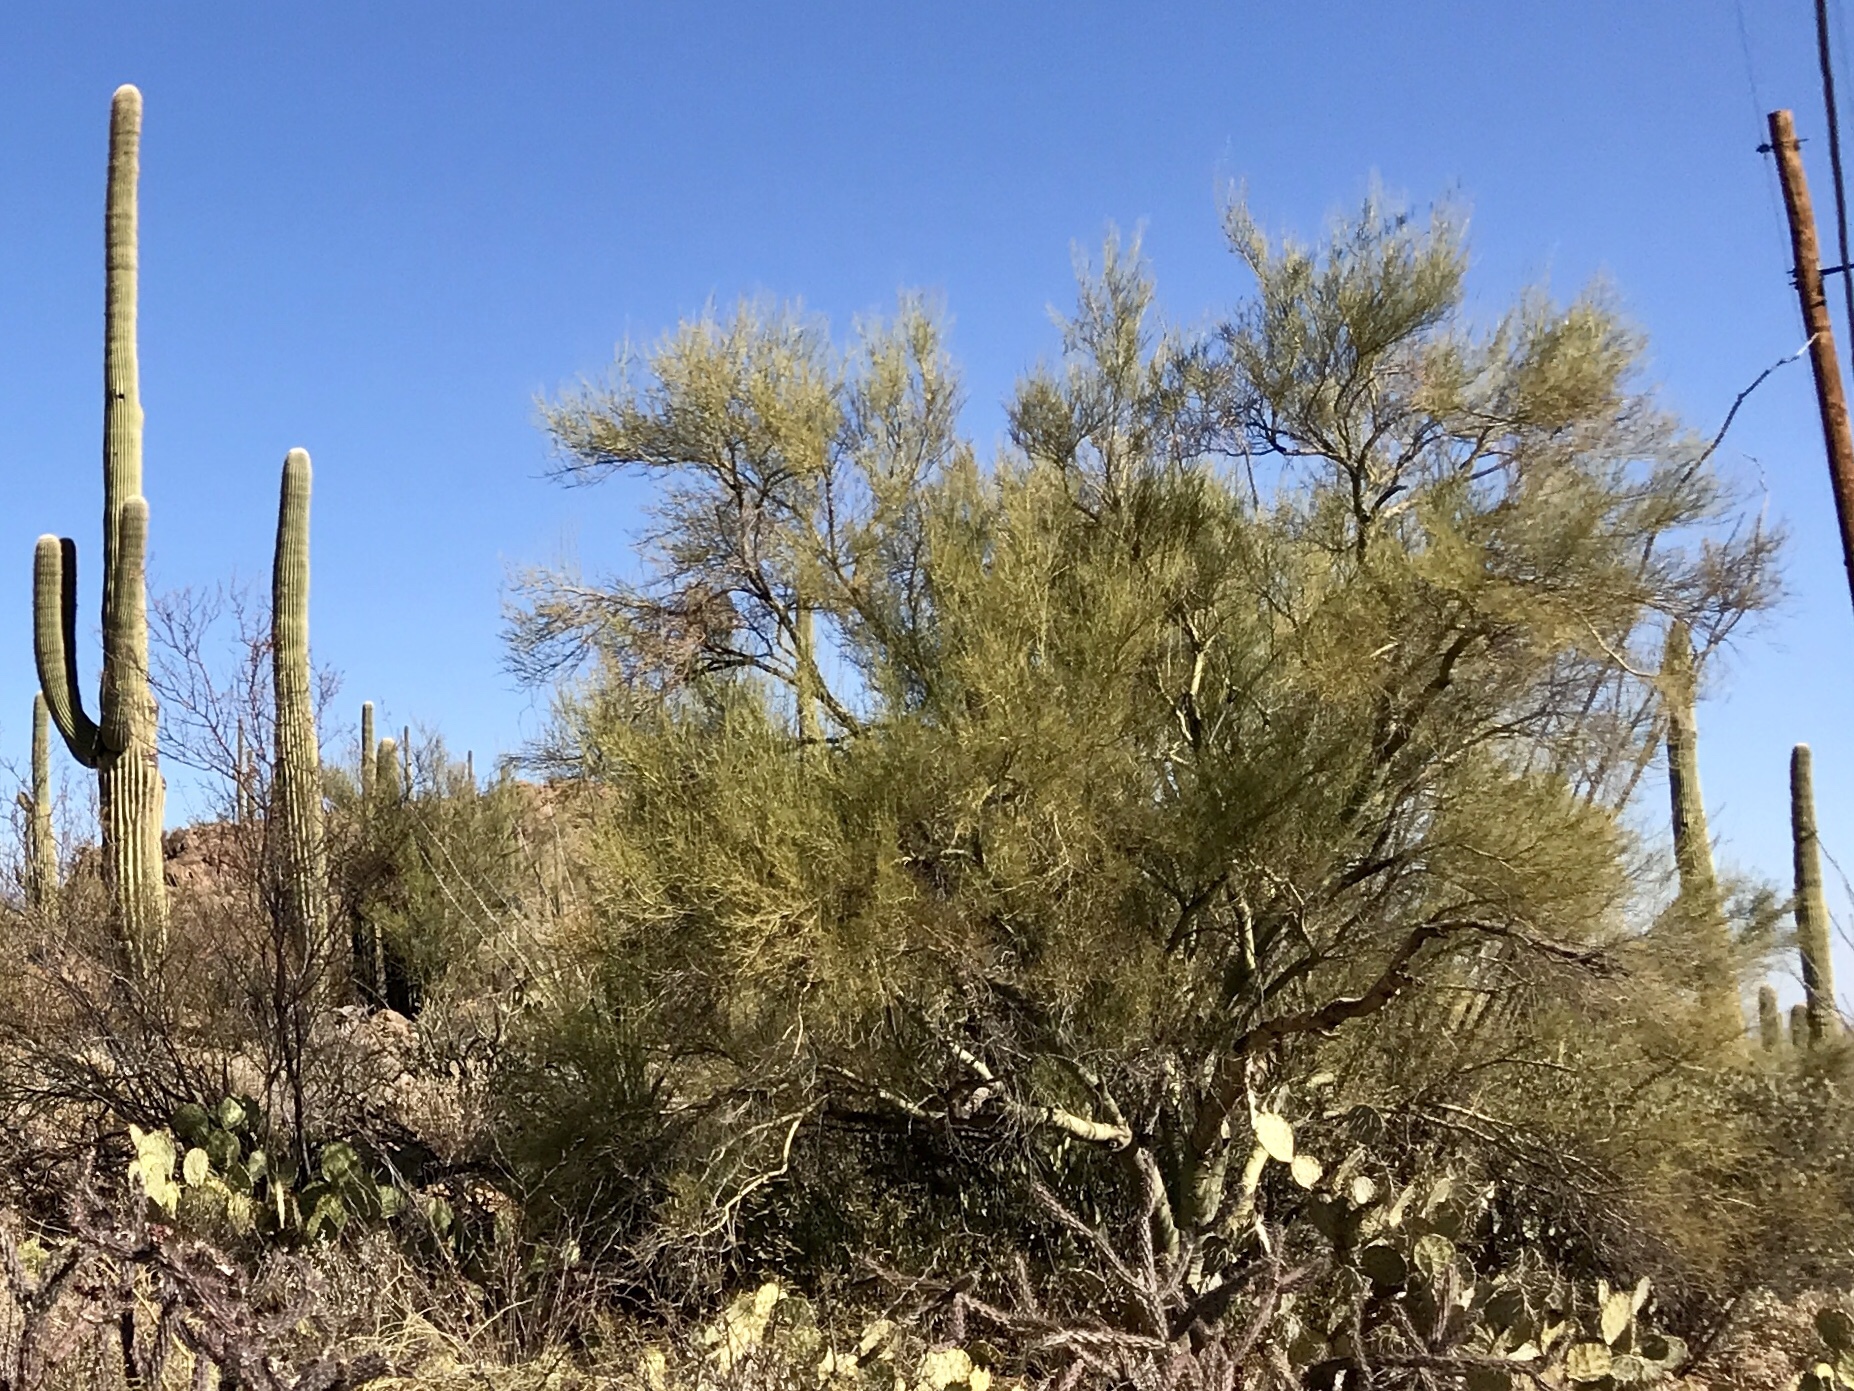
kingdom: Plantae
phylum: Tracheophyta
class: Magnoliopsida
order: Fabales
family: Fabaceae
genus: Parkinsonia
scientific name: Parkinsonia florida
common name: Blue paloverde
